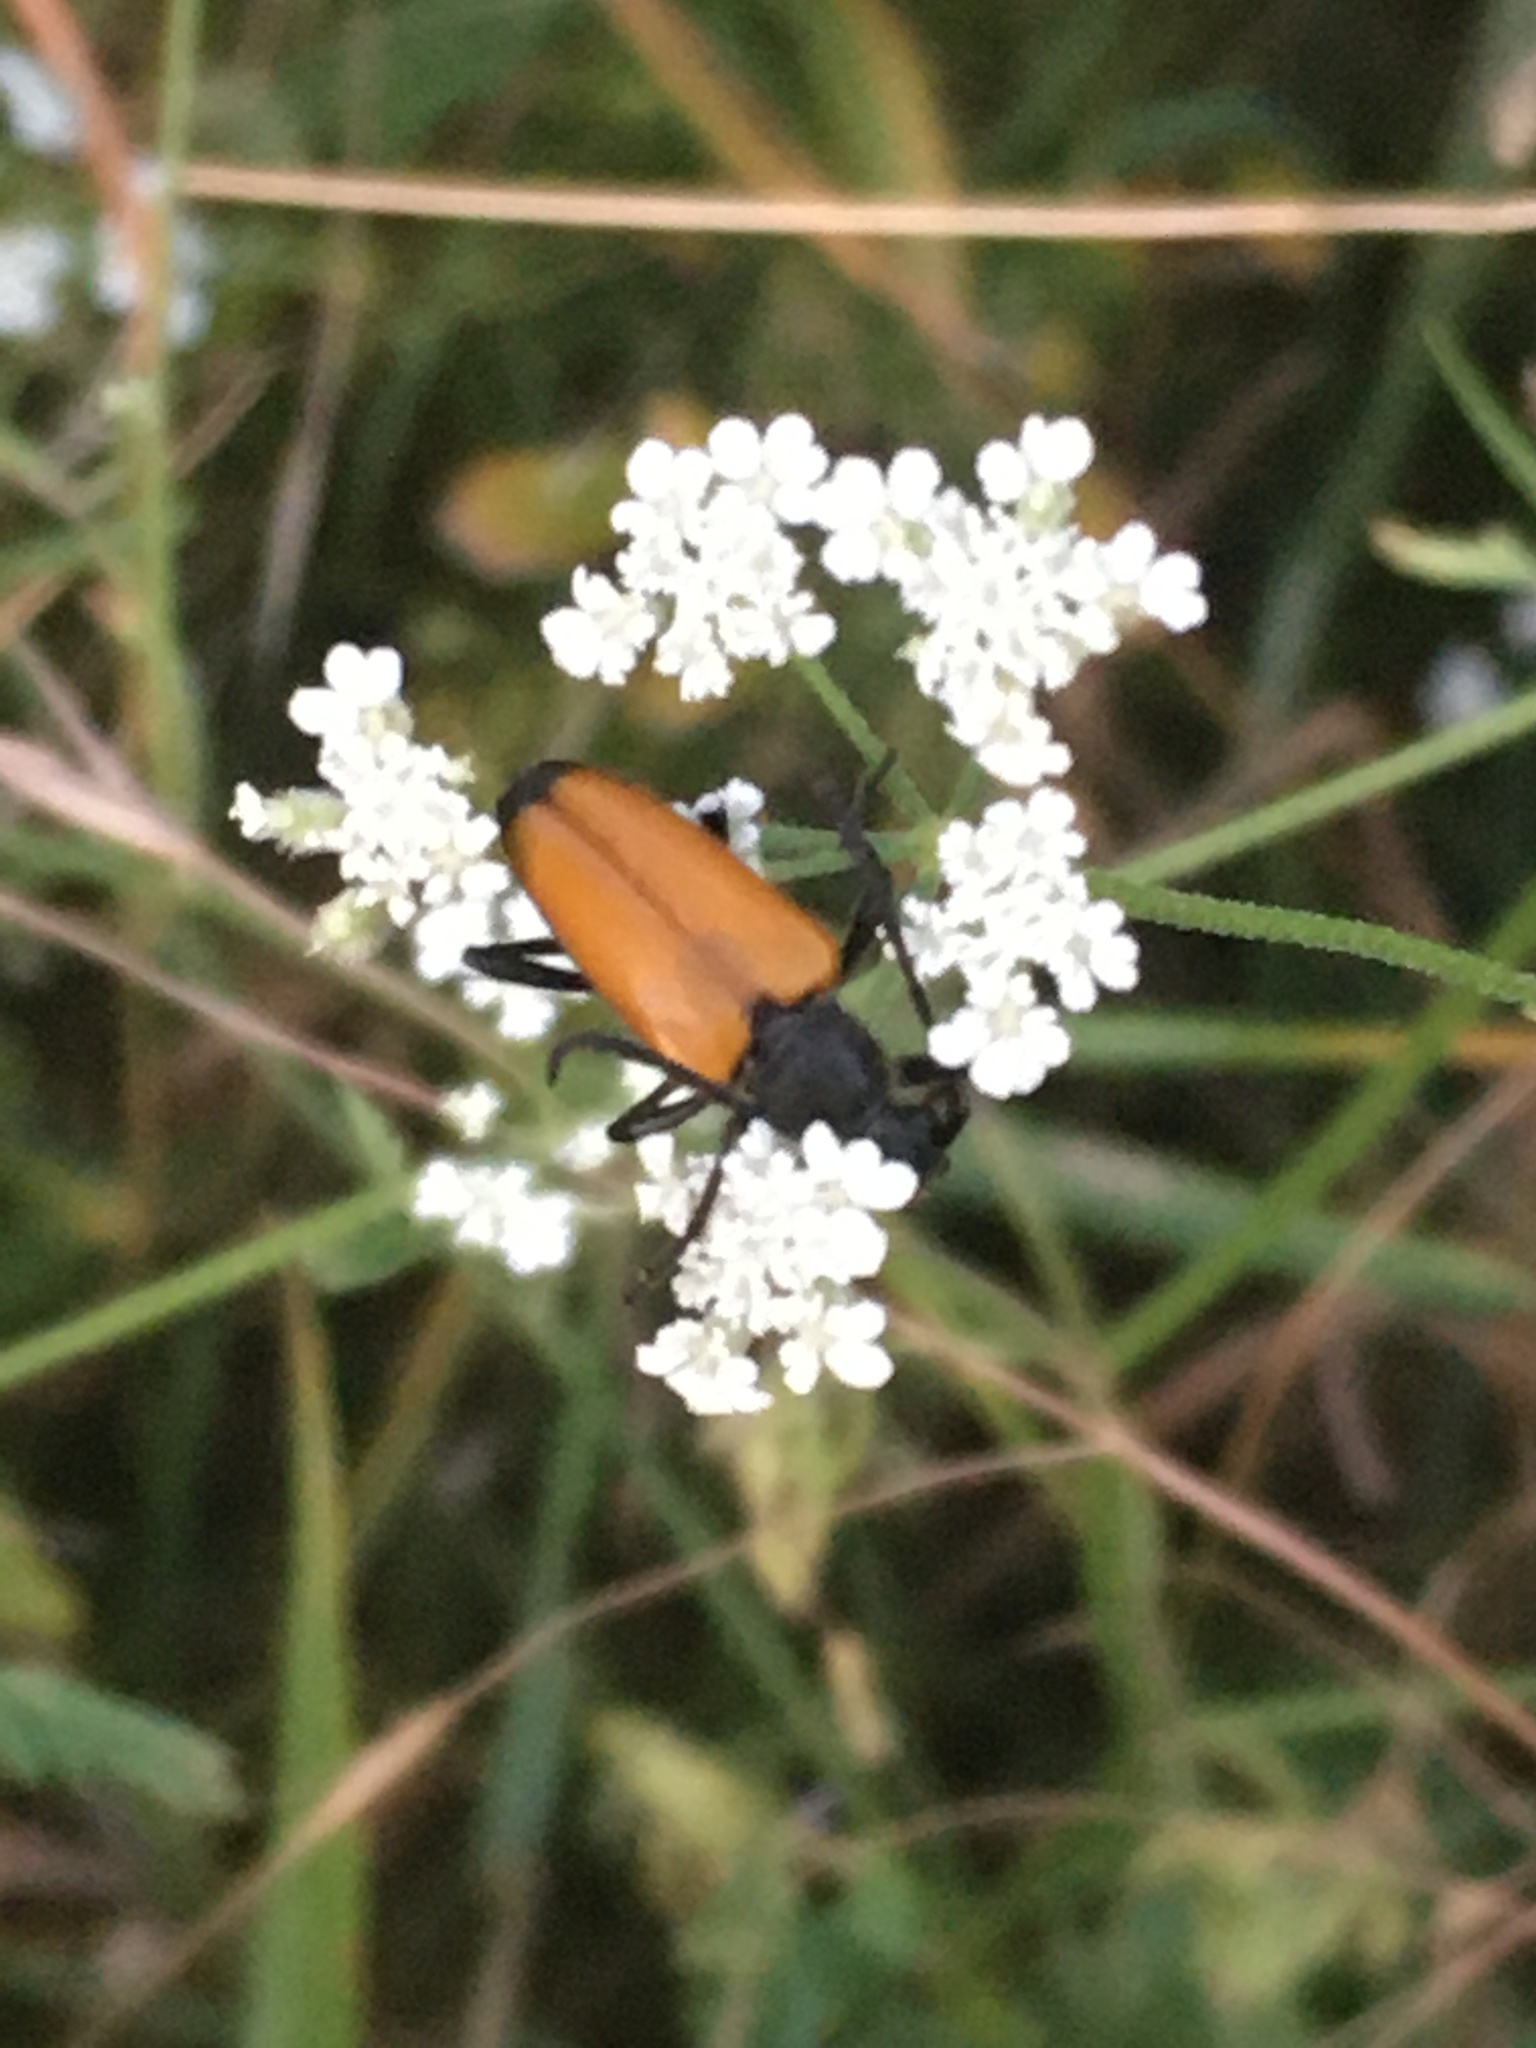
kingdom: Animalia
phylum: Arthropoda
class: Insecta
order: Coleoptera
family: Cerambycidae
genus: Paracorymbia
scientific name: Paracorymbia fulva
